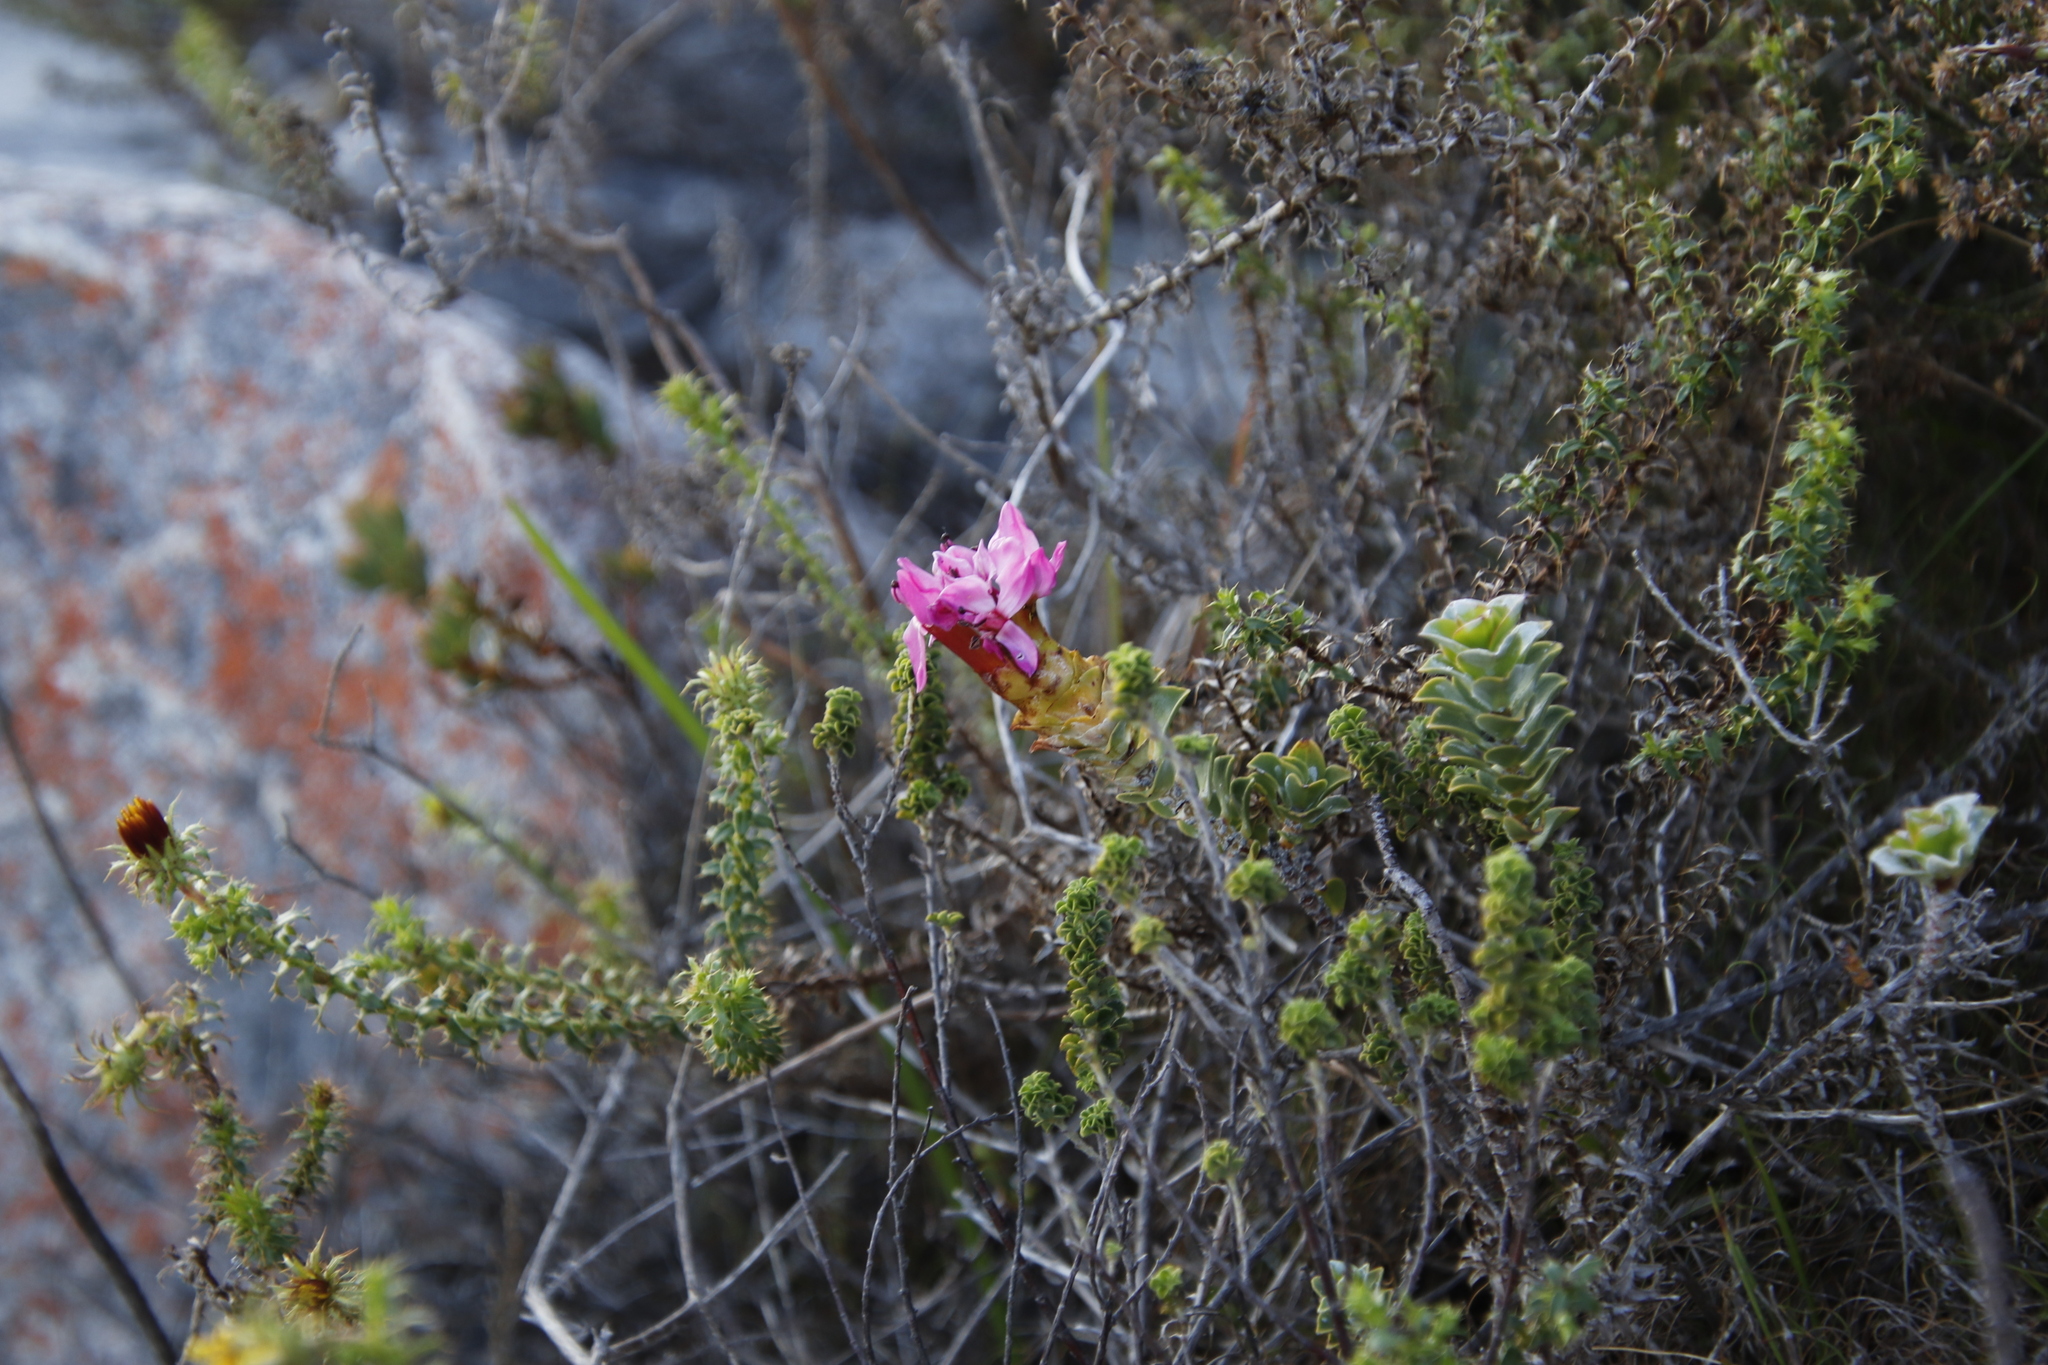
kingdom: Plantae
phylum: Tracheophyta
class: Magnoliopsida
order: Myrtales
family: Penaeaceae
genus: Saltera
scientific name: Saltera sarcocolla
